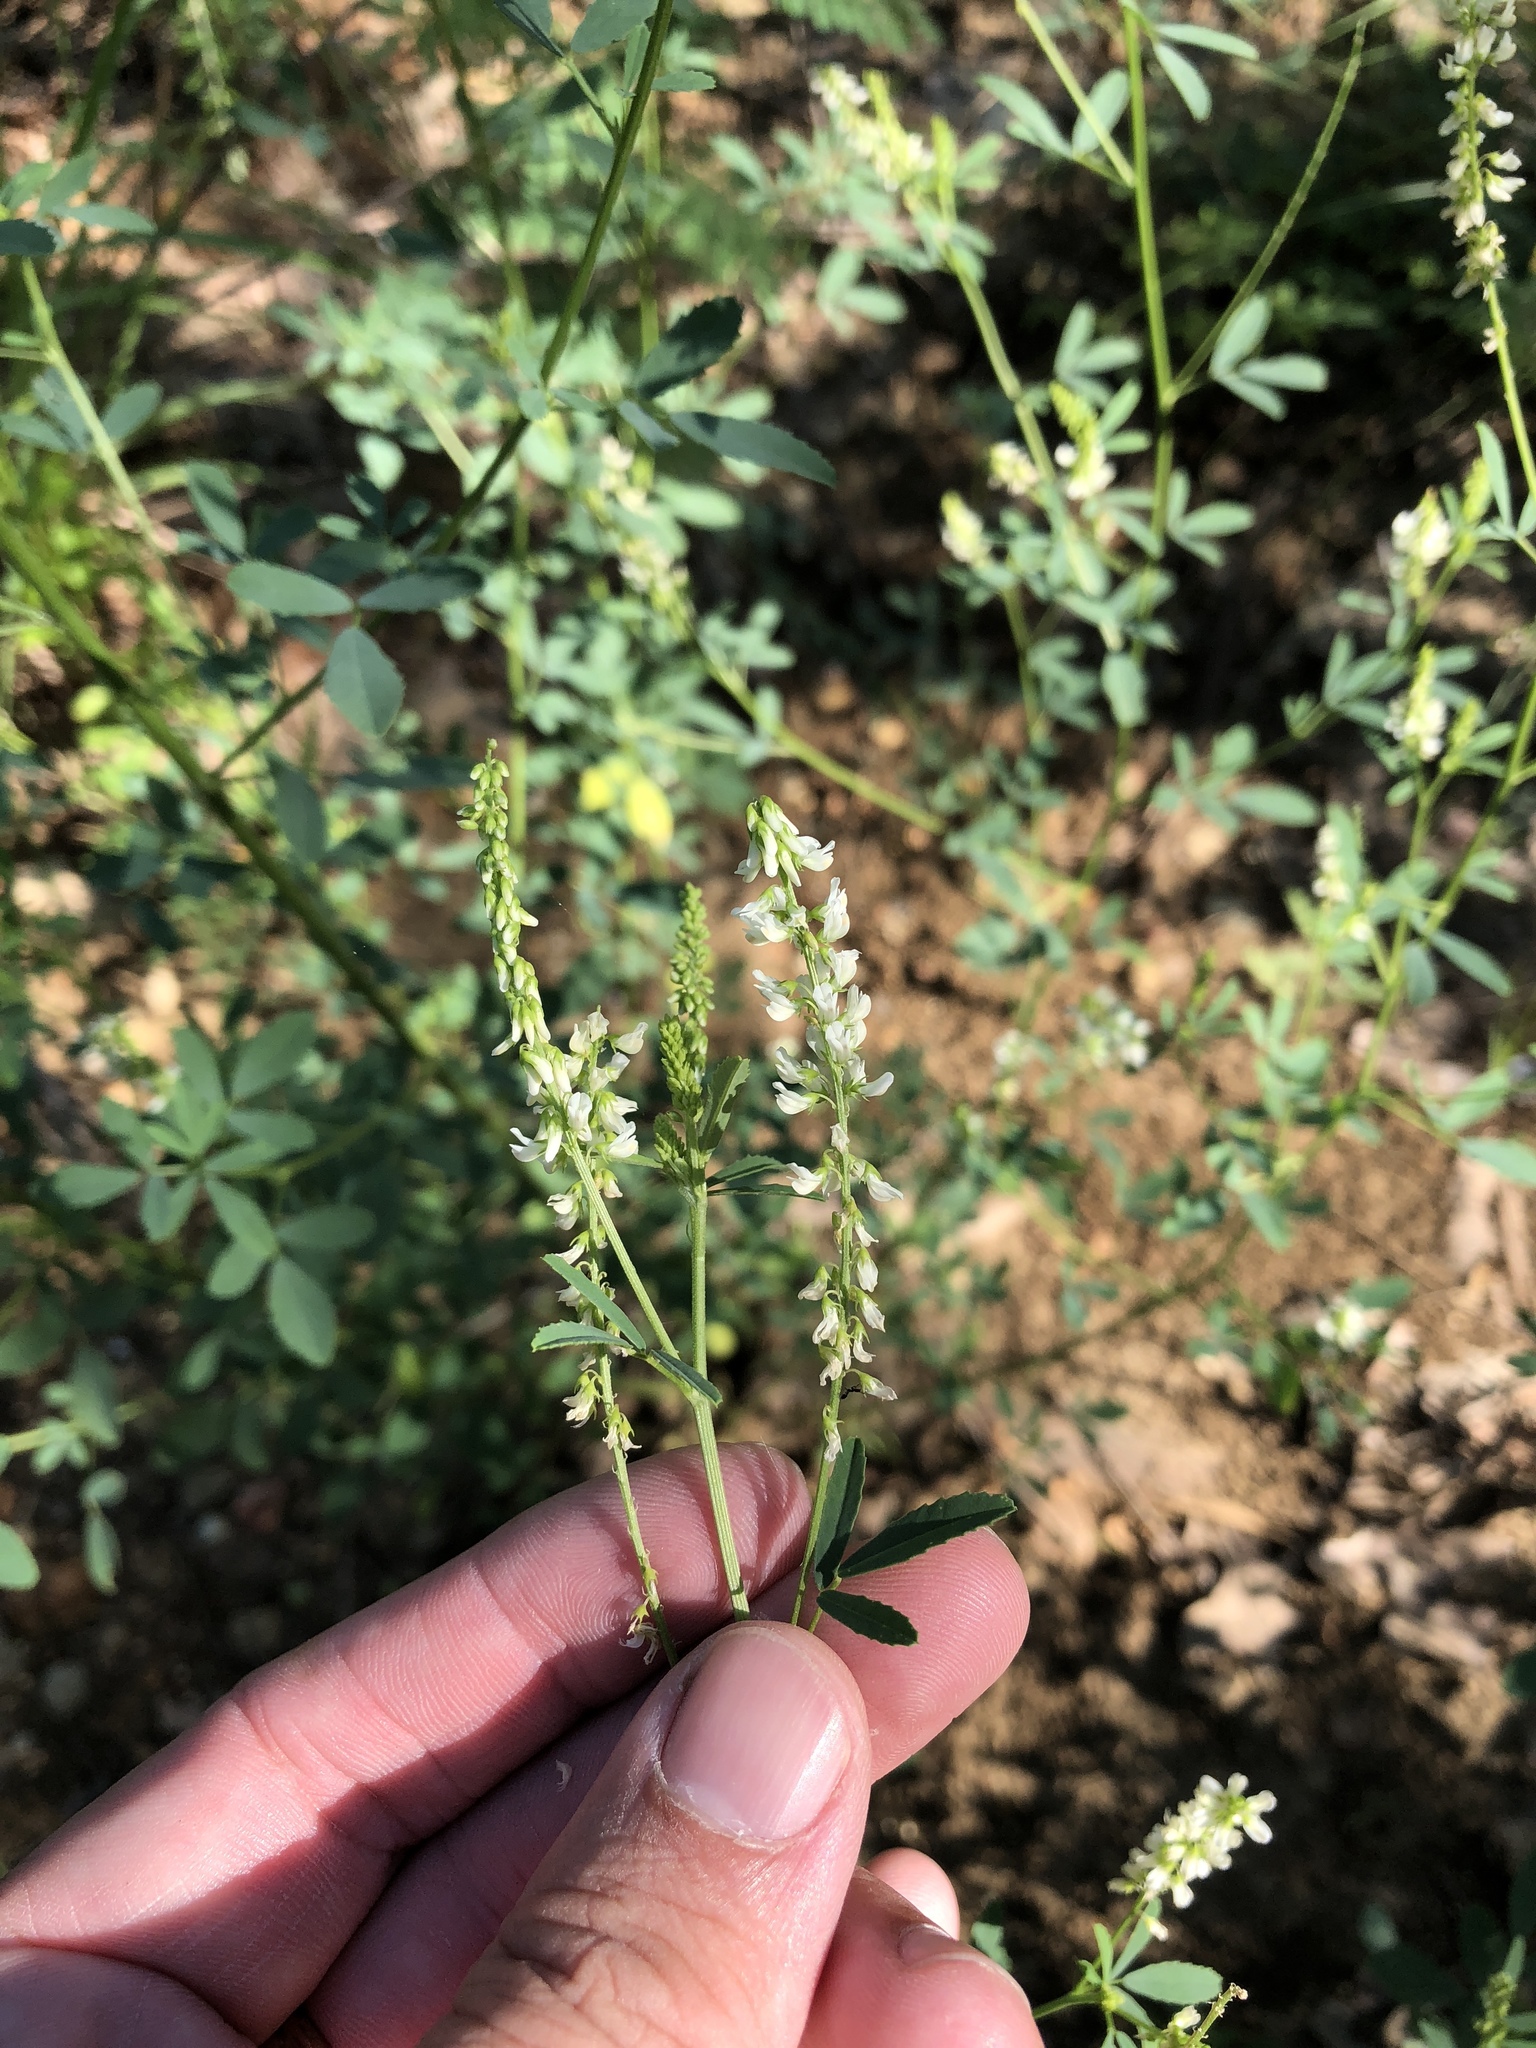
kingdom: Plantae
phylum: Tracheophyta
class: Magnoliopsida
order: Fabales
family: Fabaceae
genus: Melilotus
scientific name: Melilotus albus
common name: White melilot
